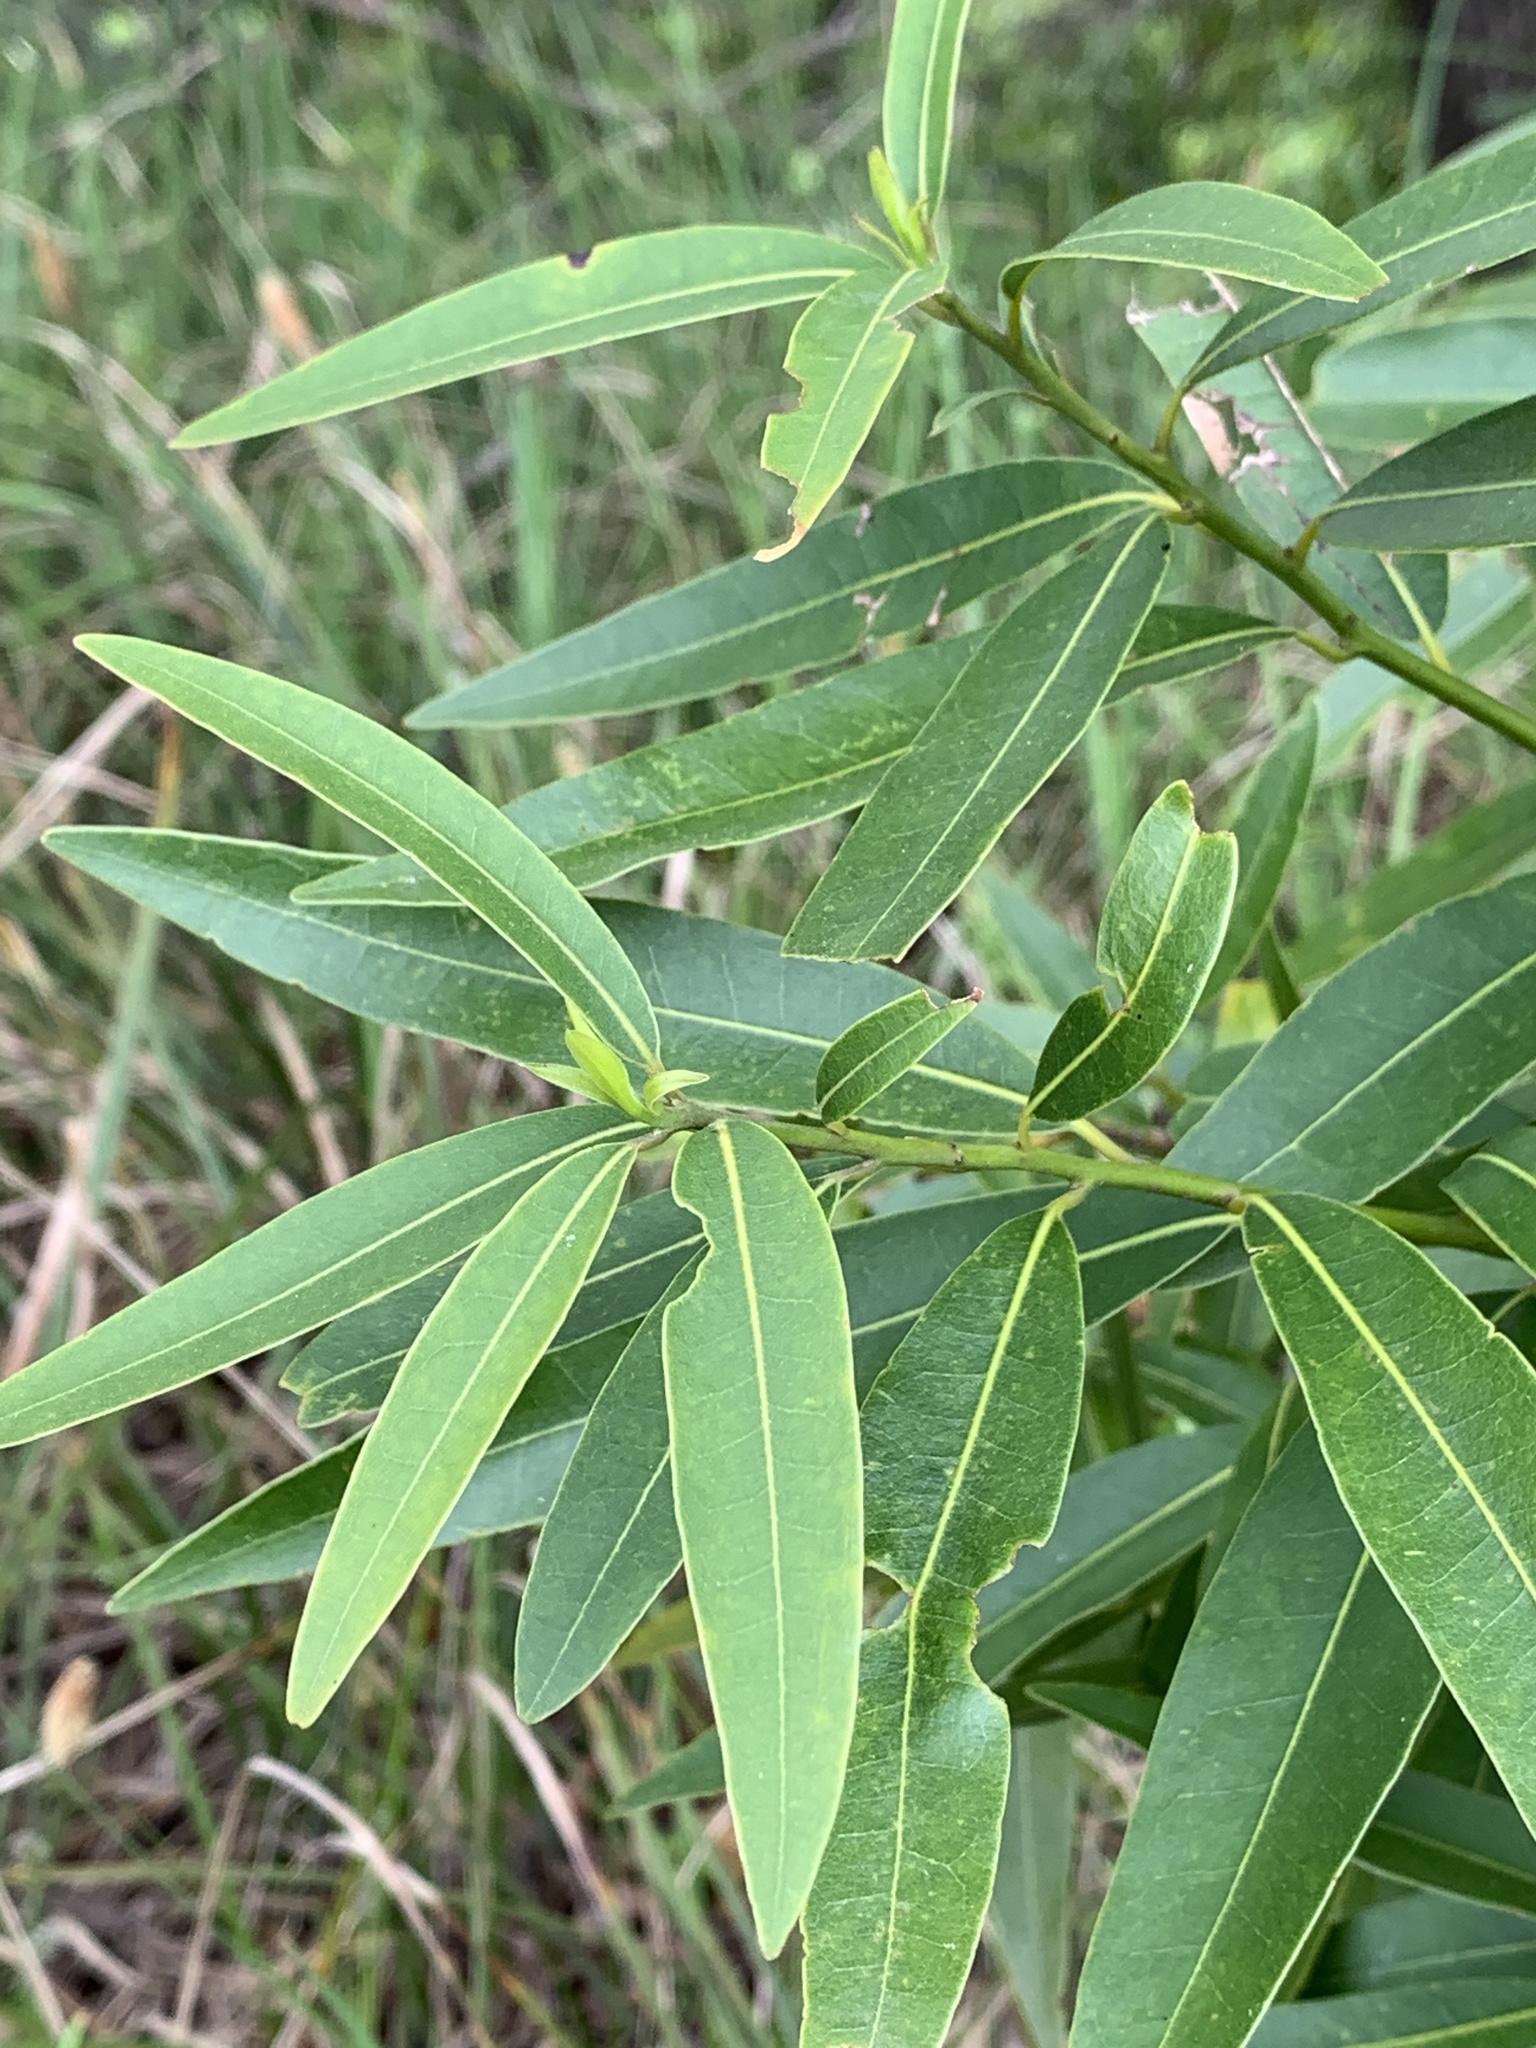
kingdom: Plantae
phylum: Tracheophyta
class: Magnoliopsida
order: Laurales
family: Lauraceae
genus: Umbellularia
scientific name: Umbellularia californica
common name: California bay
